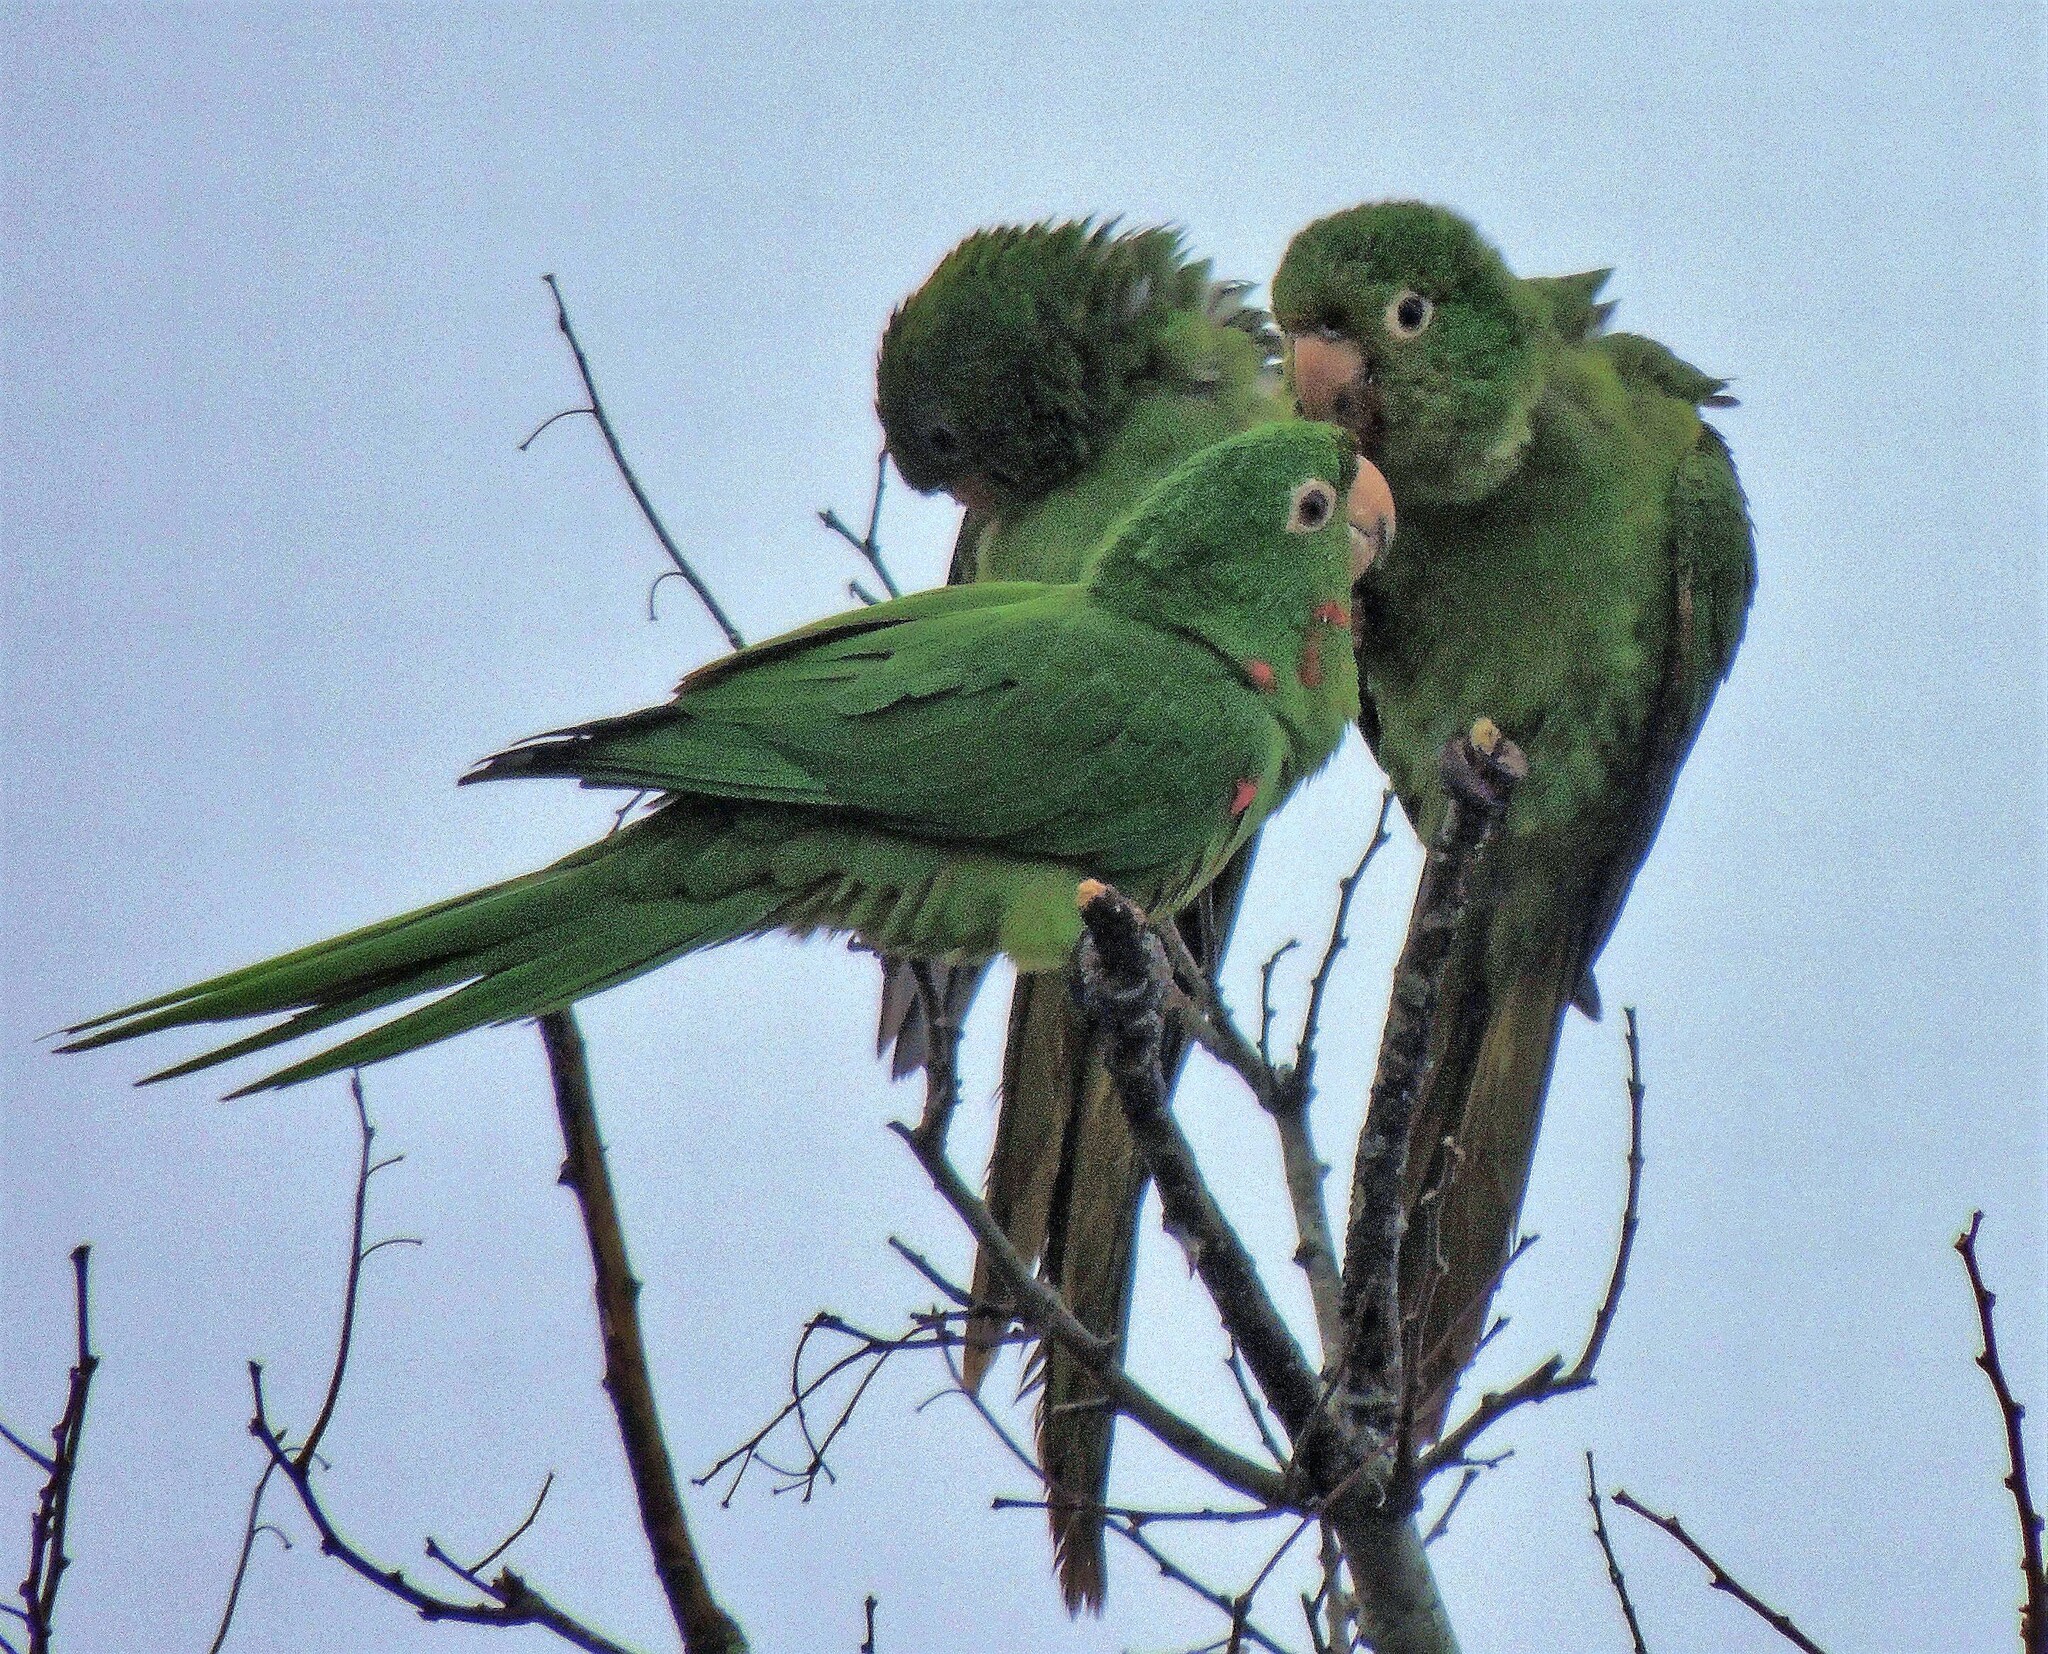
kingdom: Animalia
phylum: Chordata
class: Aves
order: Psittaciformes
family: Psittacidae
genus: Aratinga
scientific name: Aratinga leucophthalma
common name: White-eyed parakeet
